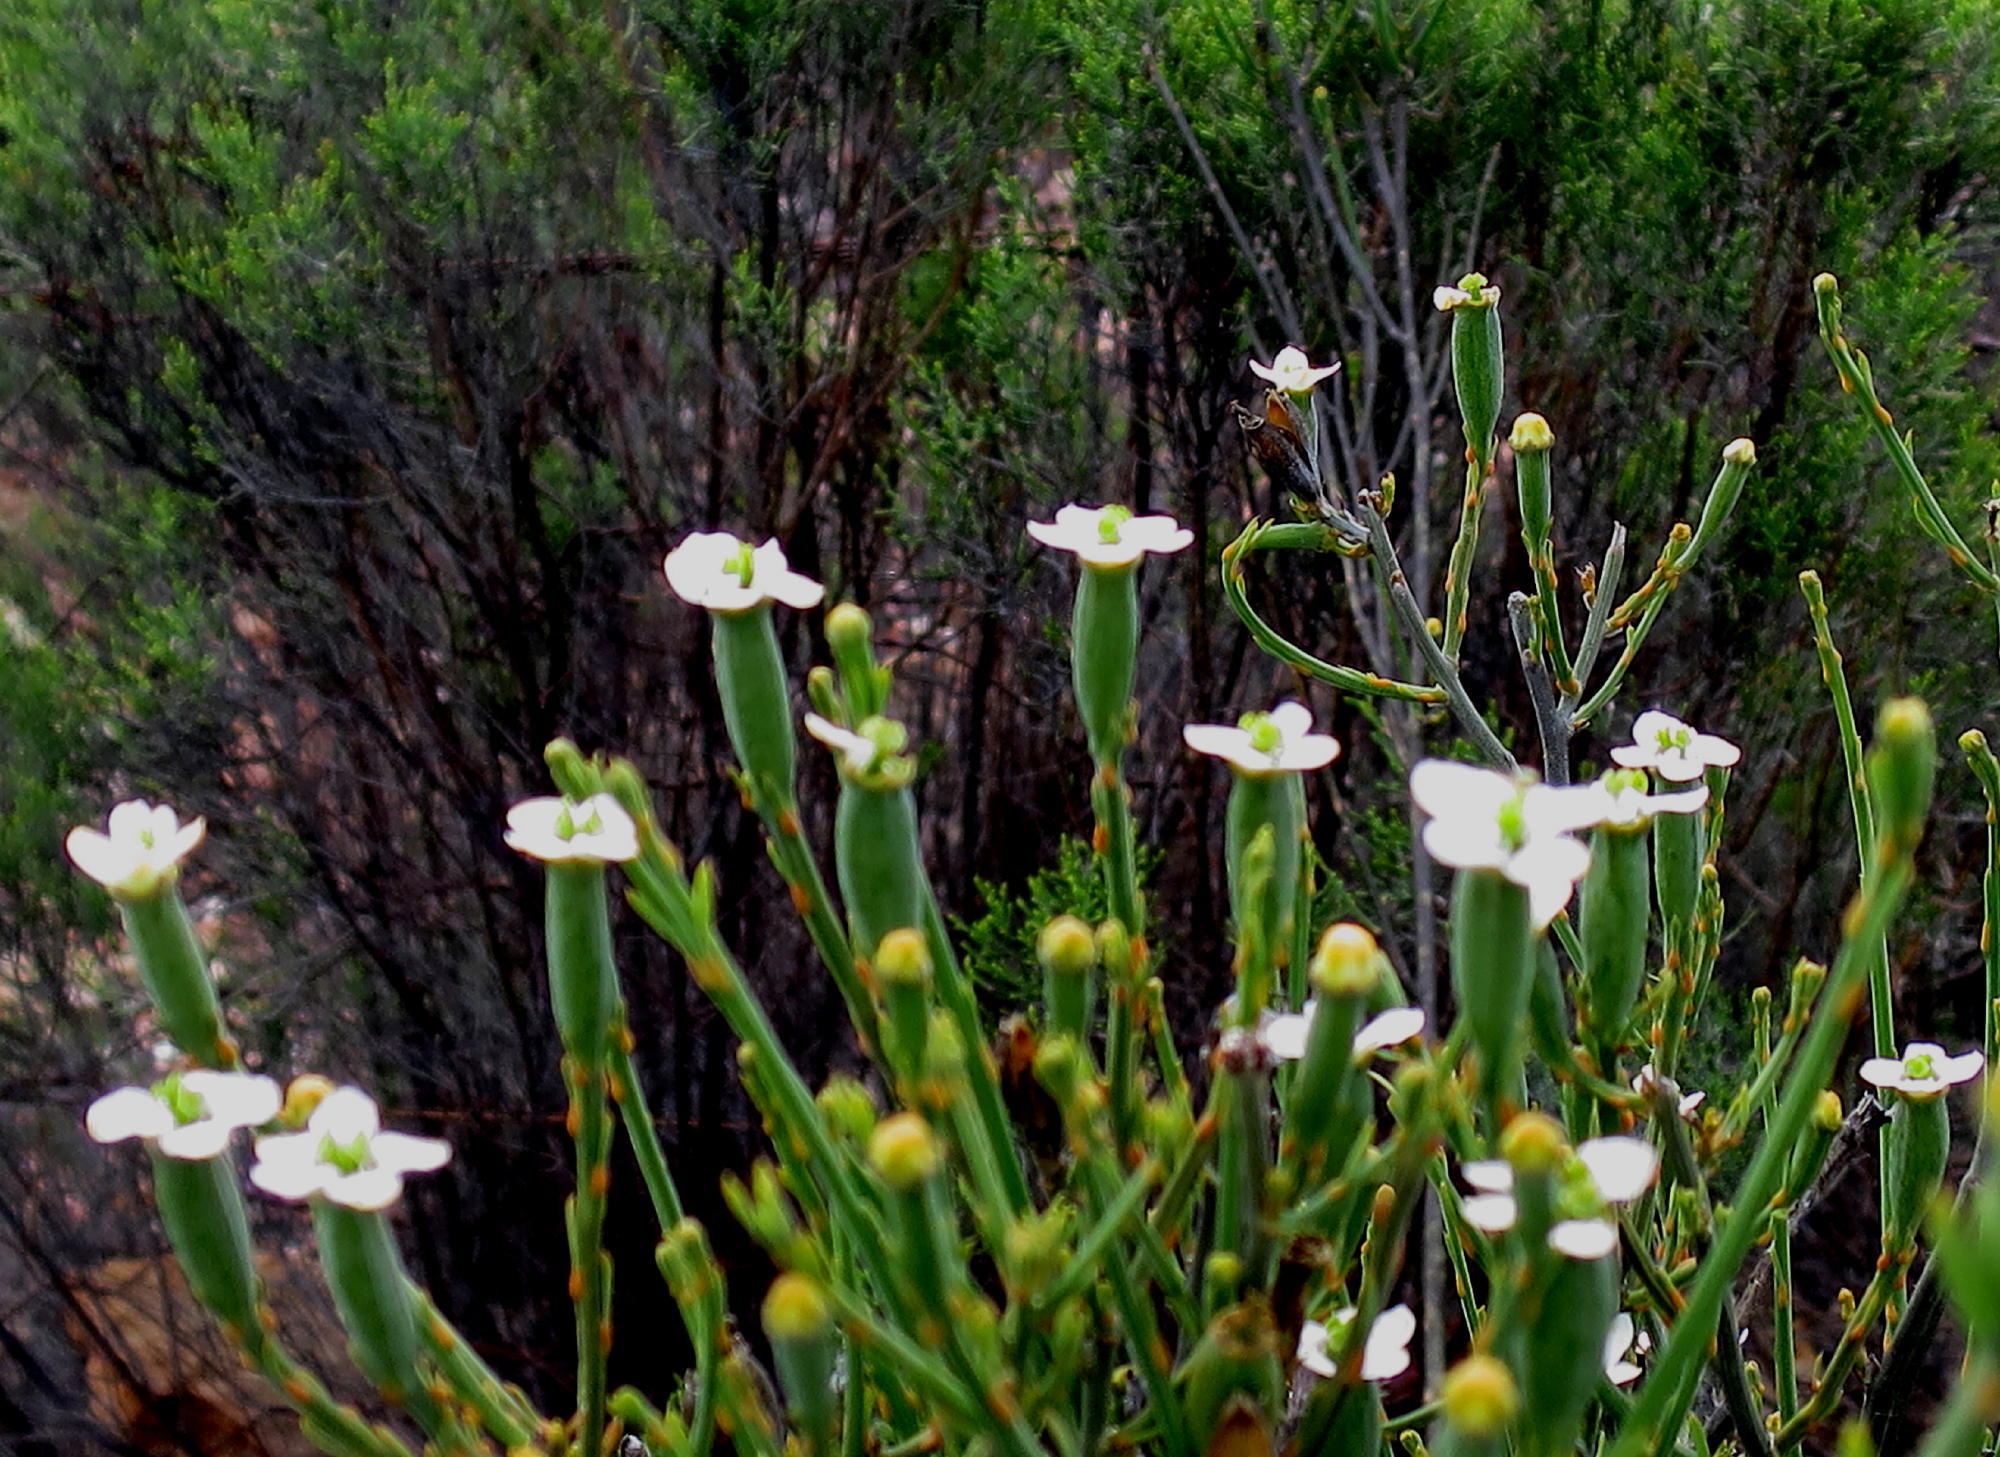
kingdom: Plantae
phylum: Tracheophyta
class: Magnoliopsida
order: Solanales
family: Montiniaceae
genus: Montinia
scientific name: Montinia caryophyllacea
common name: Wild clove-bush
